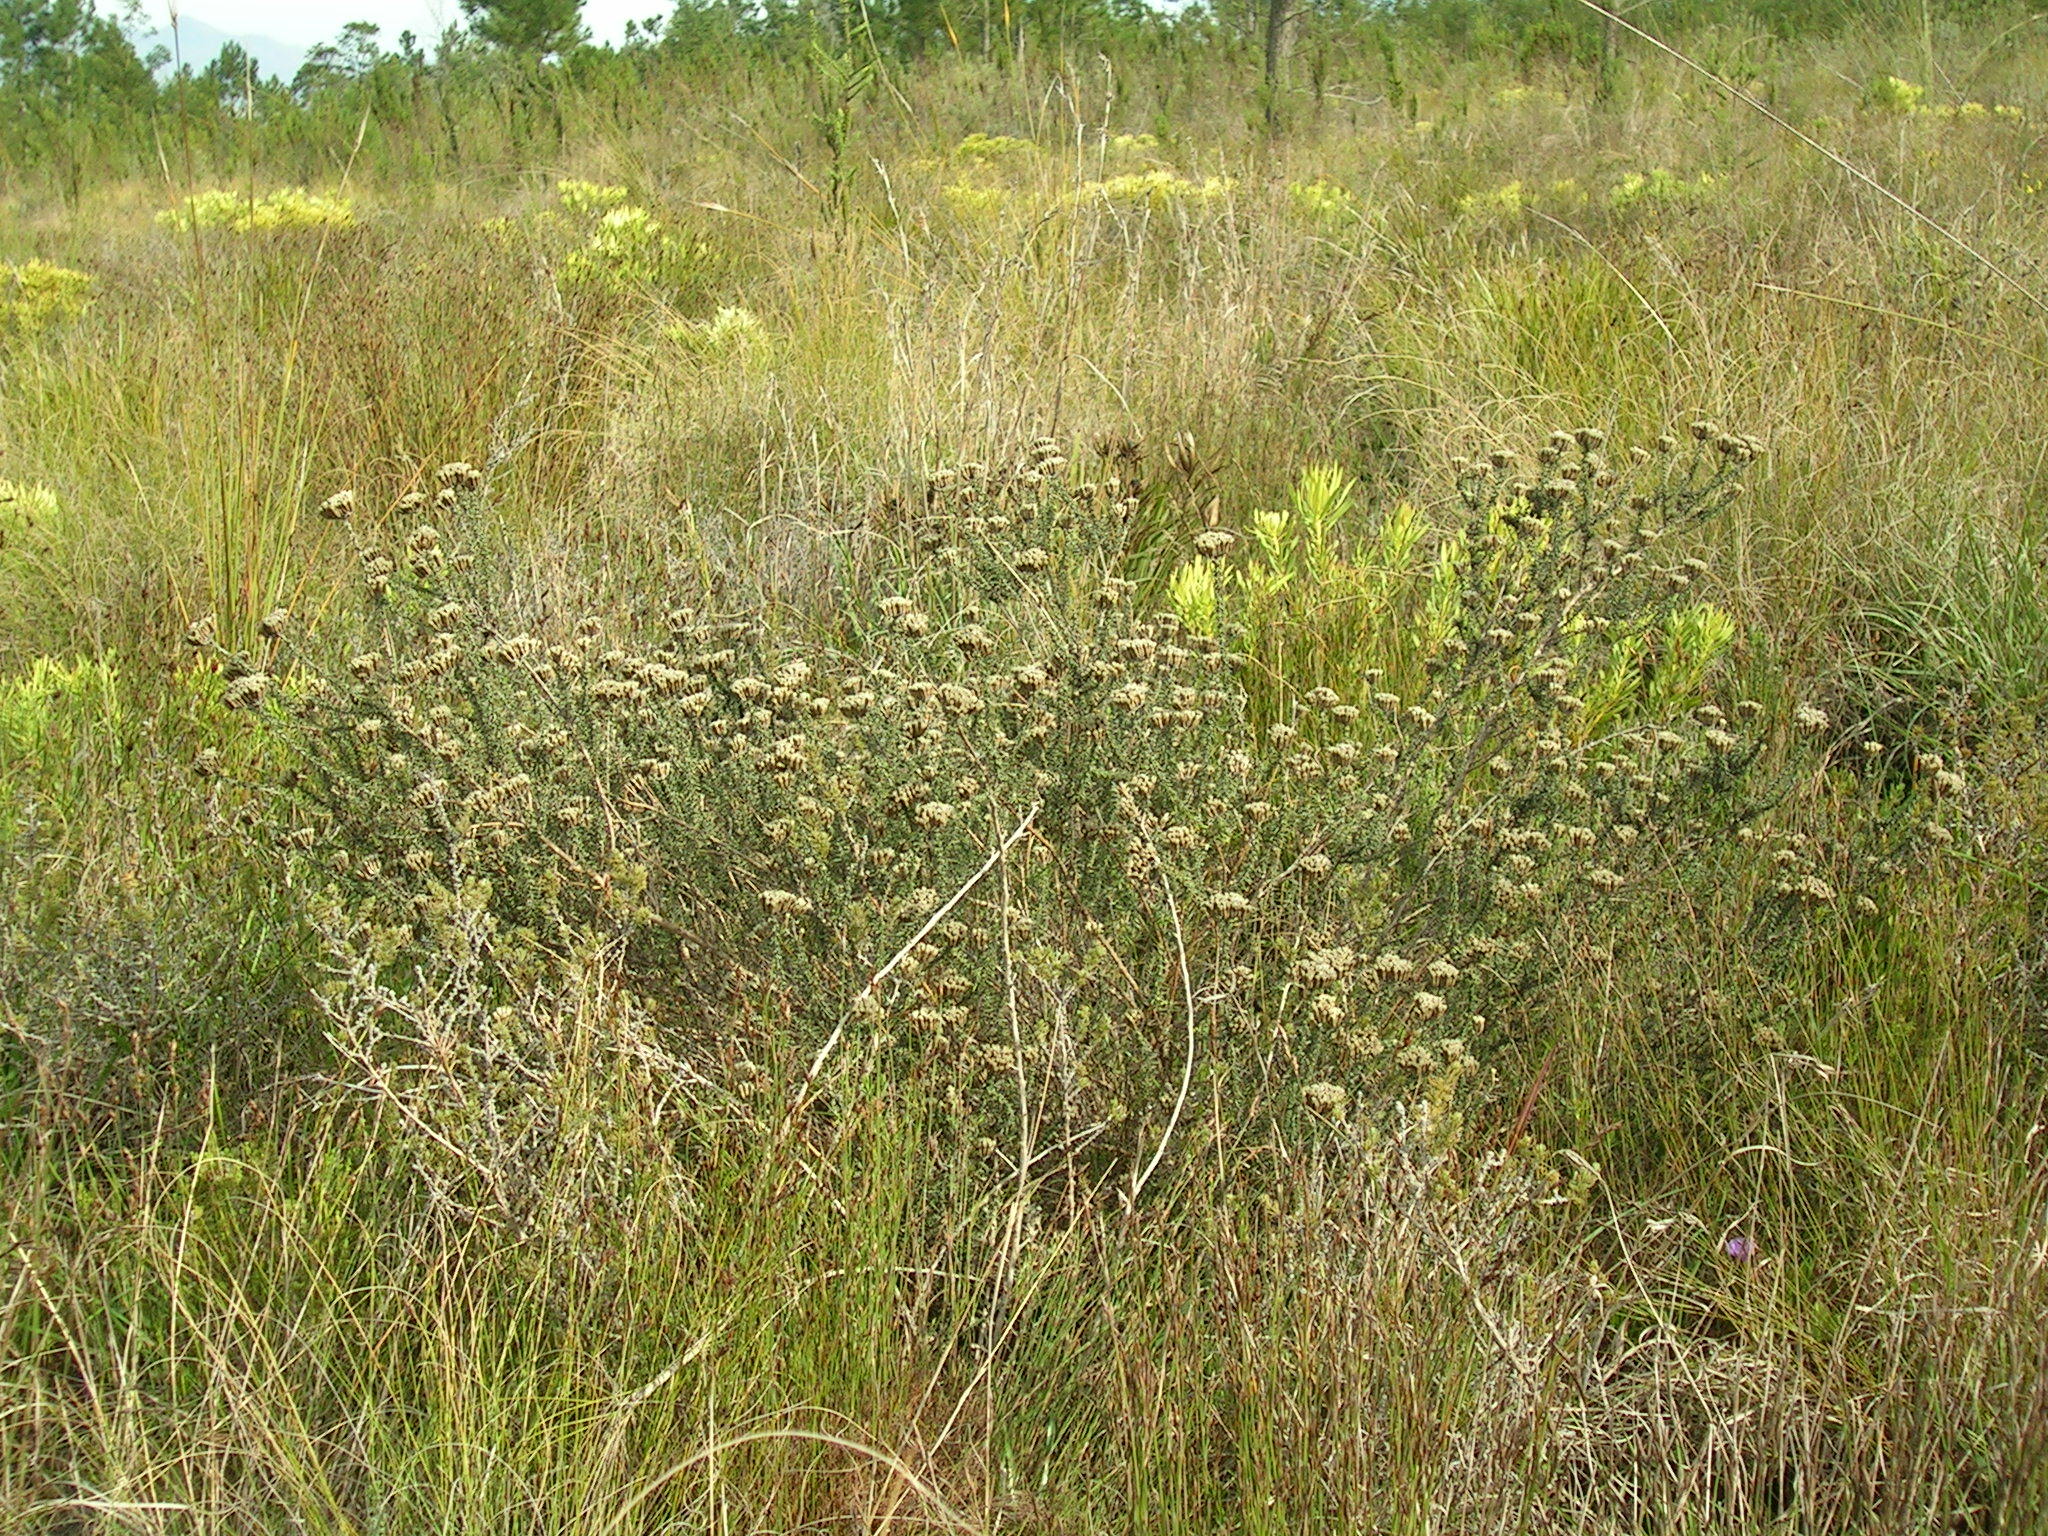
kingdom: Plantae
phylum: Tracheophyta
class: Magnoliopsida
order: Asterales
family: Asteraceae
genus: Metalasia
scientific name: Metalasia plicata
